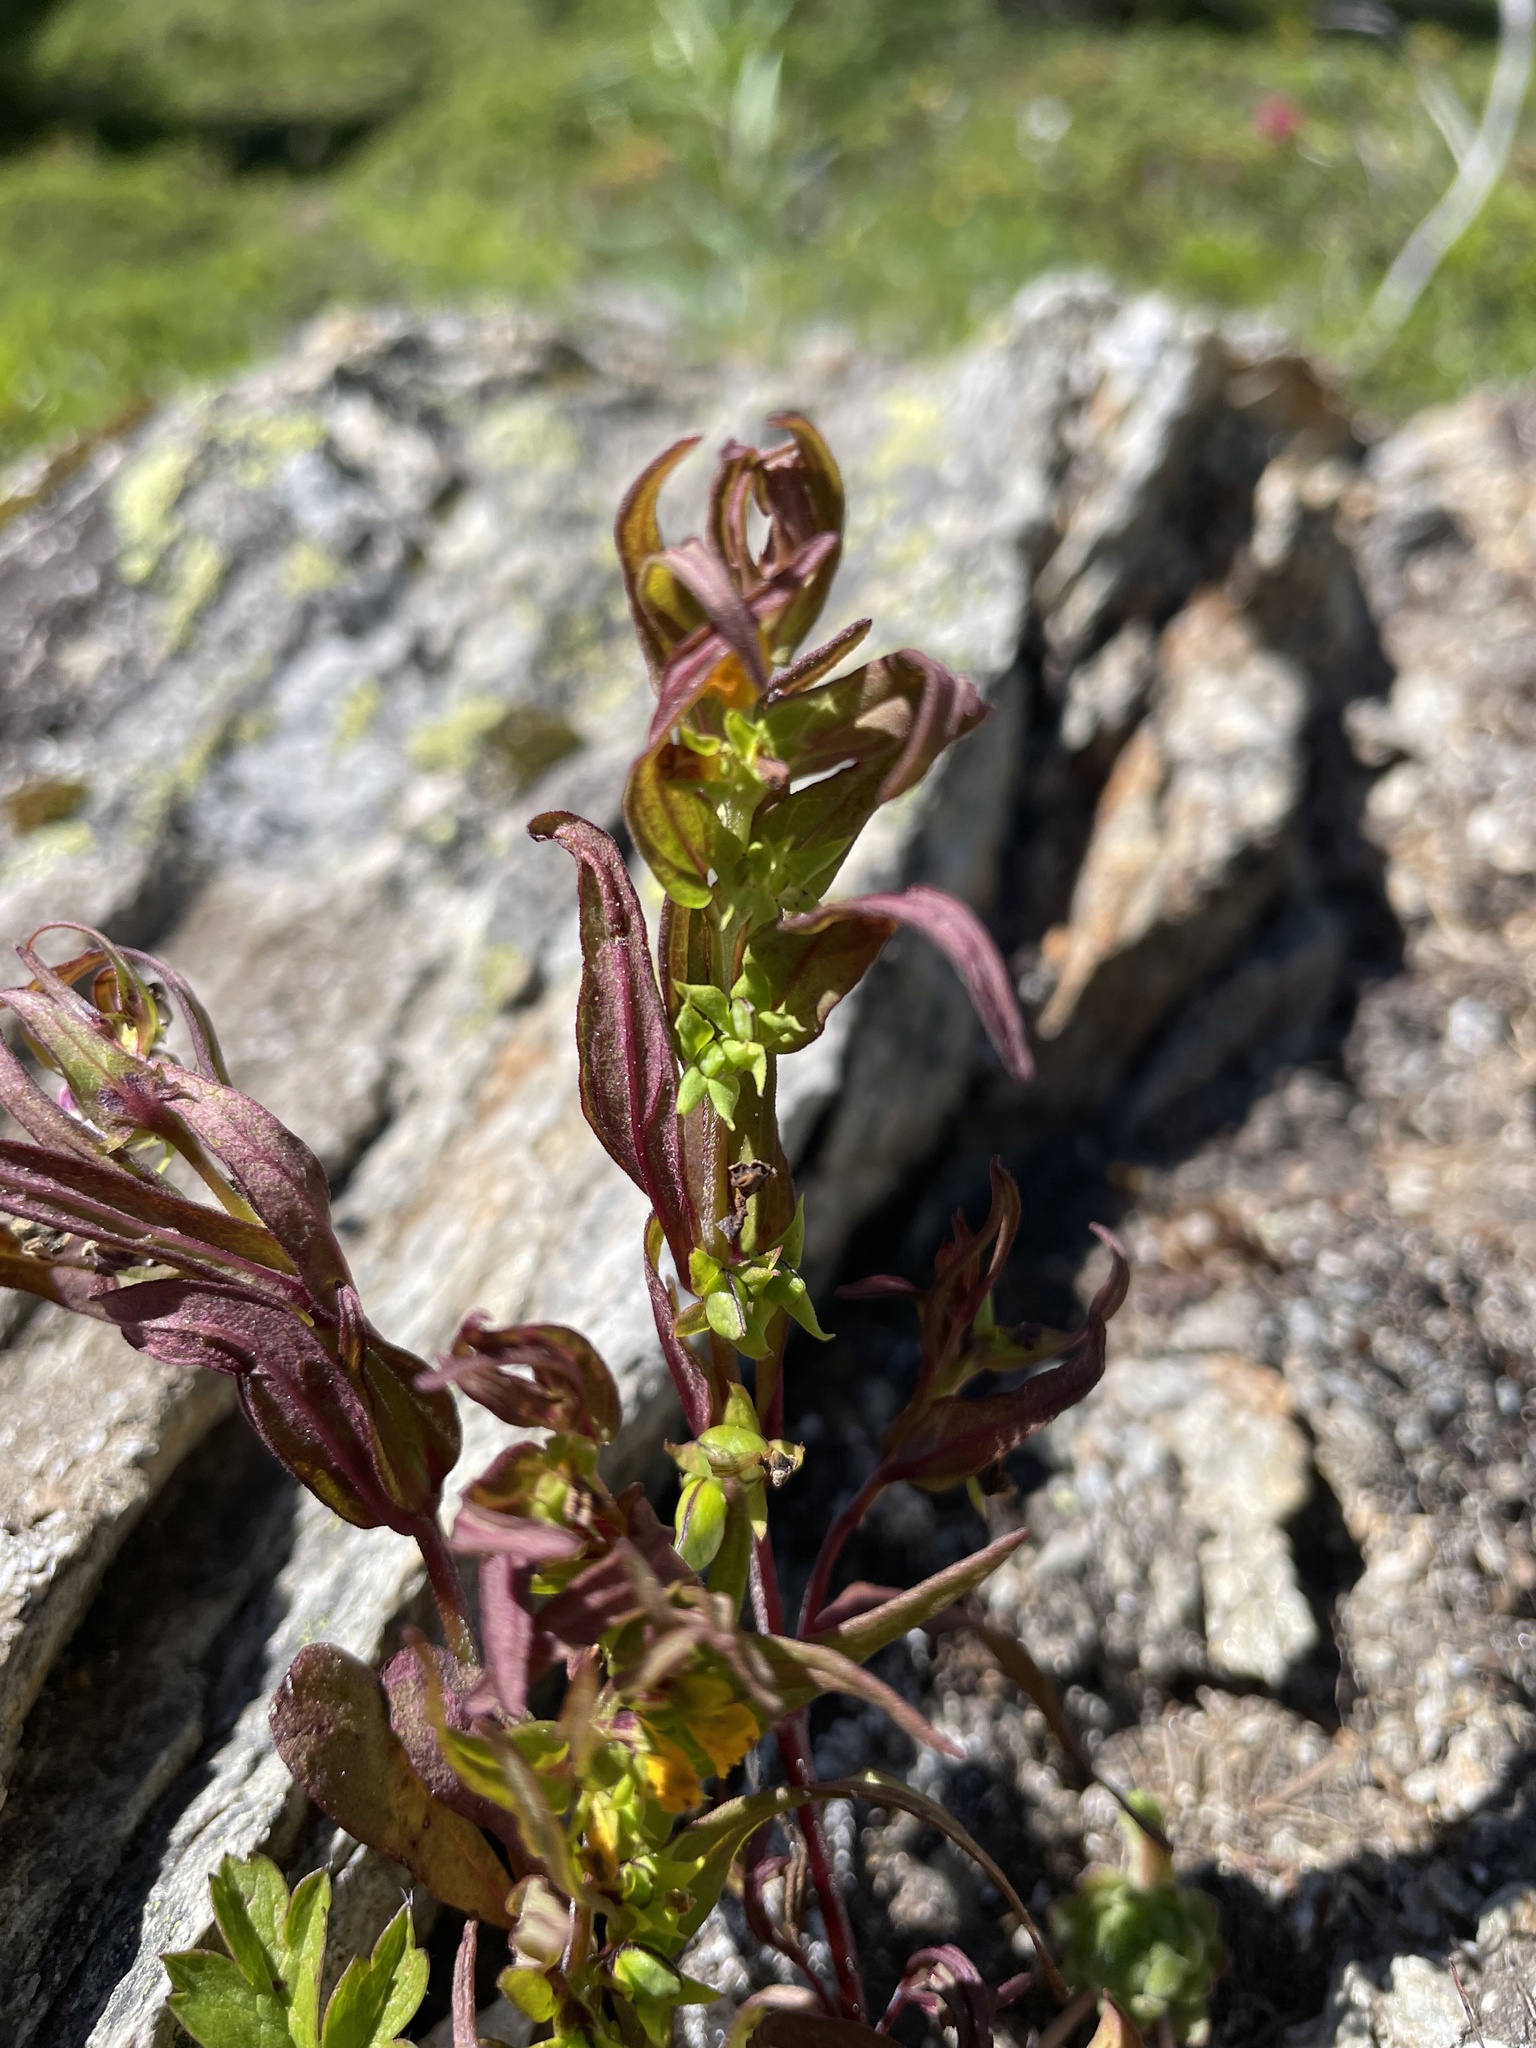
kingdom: Plantae
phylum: Tracheophyta
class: Magnoliopsida
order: Lamiales
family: Orobanchaceae
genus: Melampyrum
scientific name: Melampyrum sylvaticum
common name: Small cow-wheat
